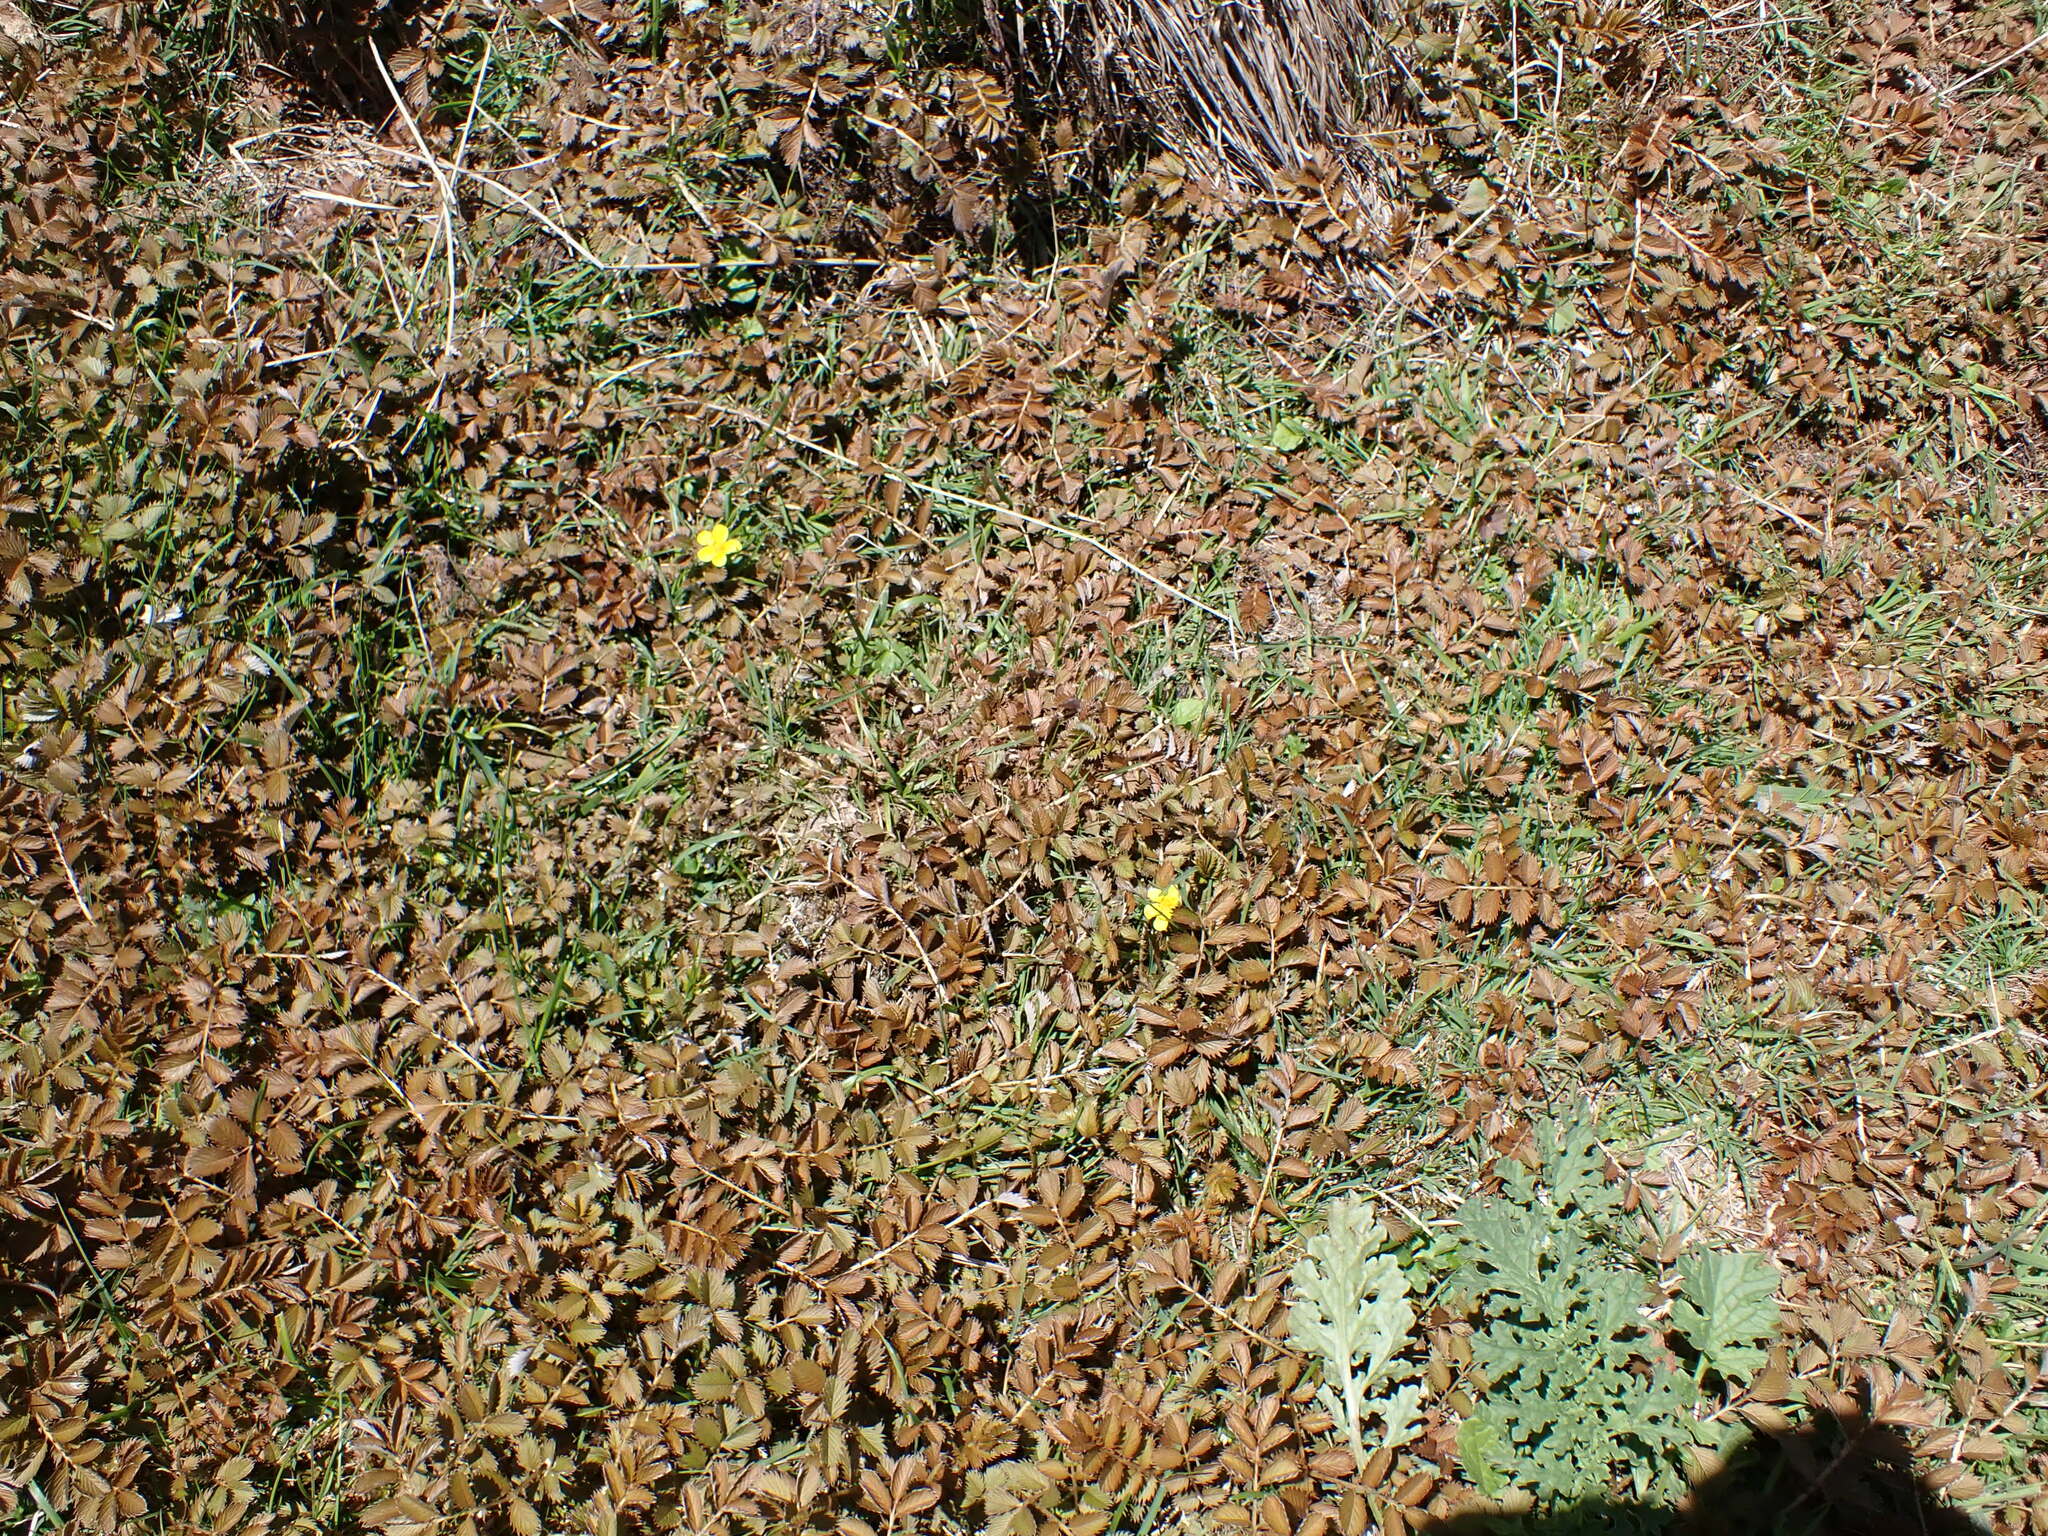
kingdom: Plantae
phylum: Tracheophyta
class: Magnoliopsida
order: Rosales
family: Rosaceae
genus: Argentina
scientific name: Argentina anserinoides
